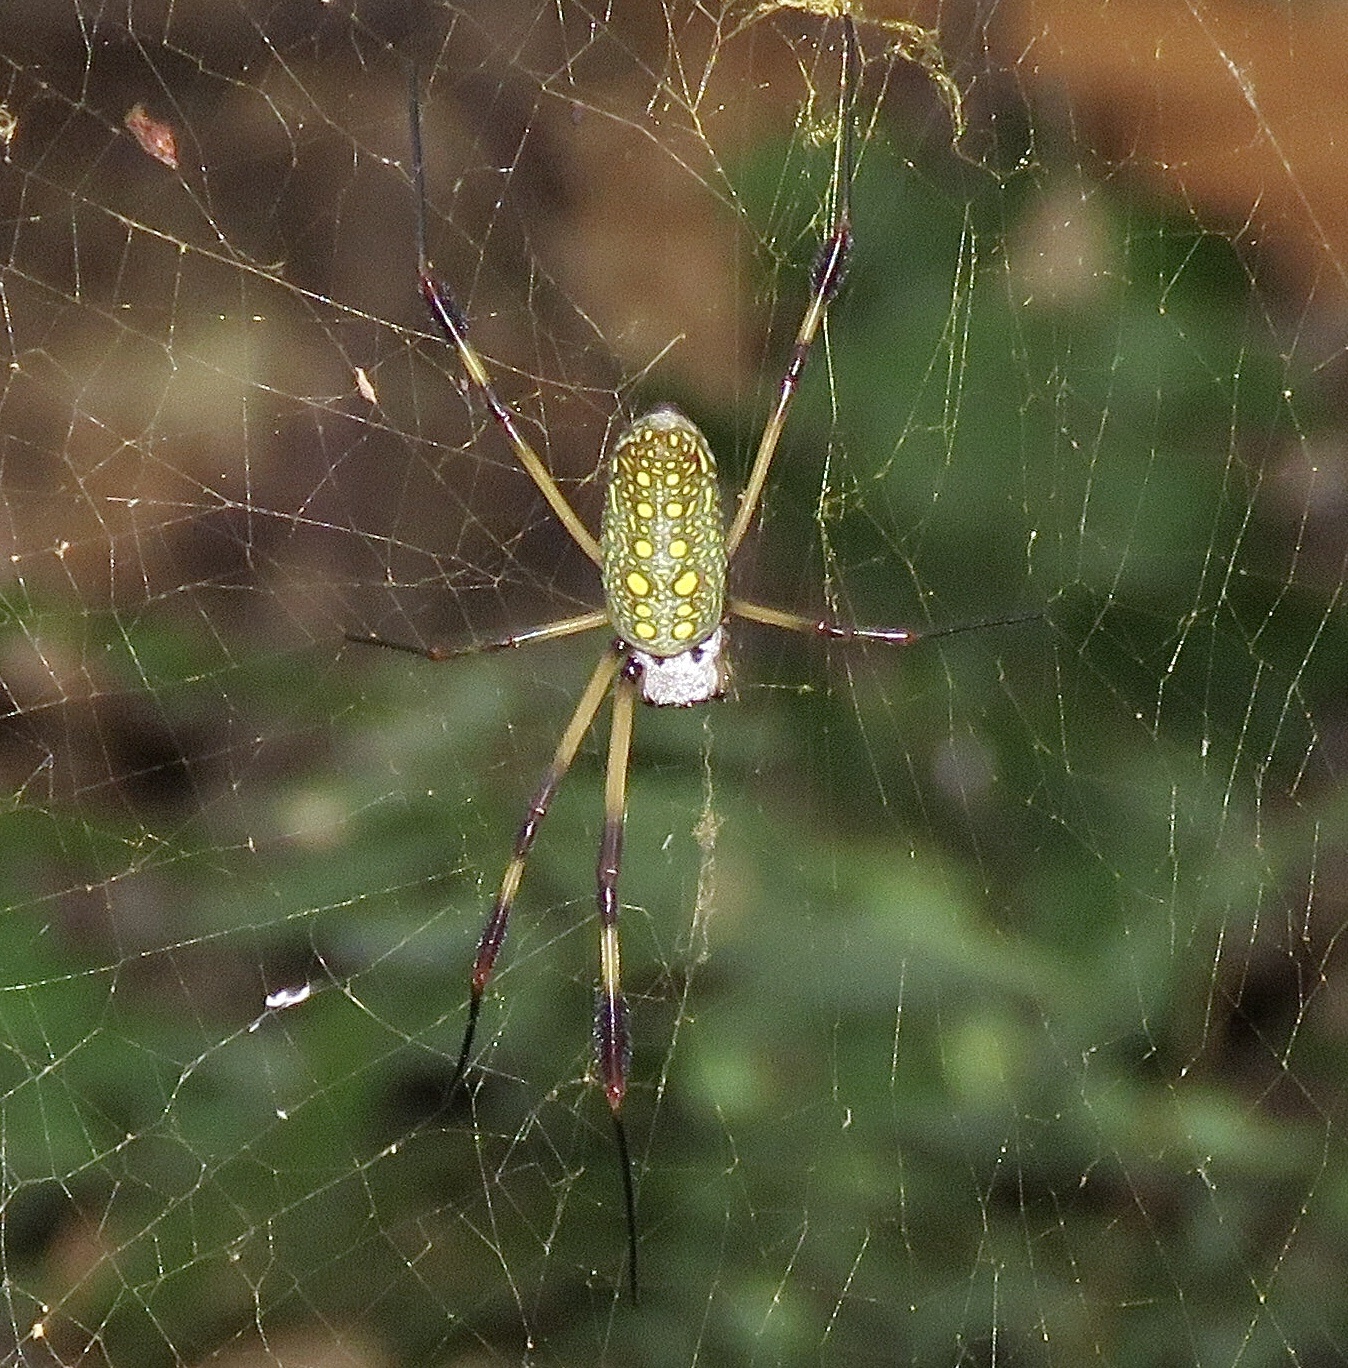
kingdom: Animalia
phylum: Arthropoda
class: Arachnida
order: Araneae
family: Araneidae
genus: Trichonephila
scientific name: Trichonephila clavipes
